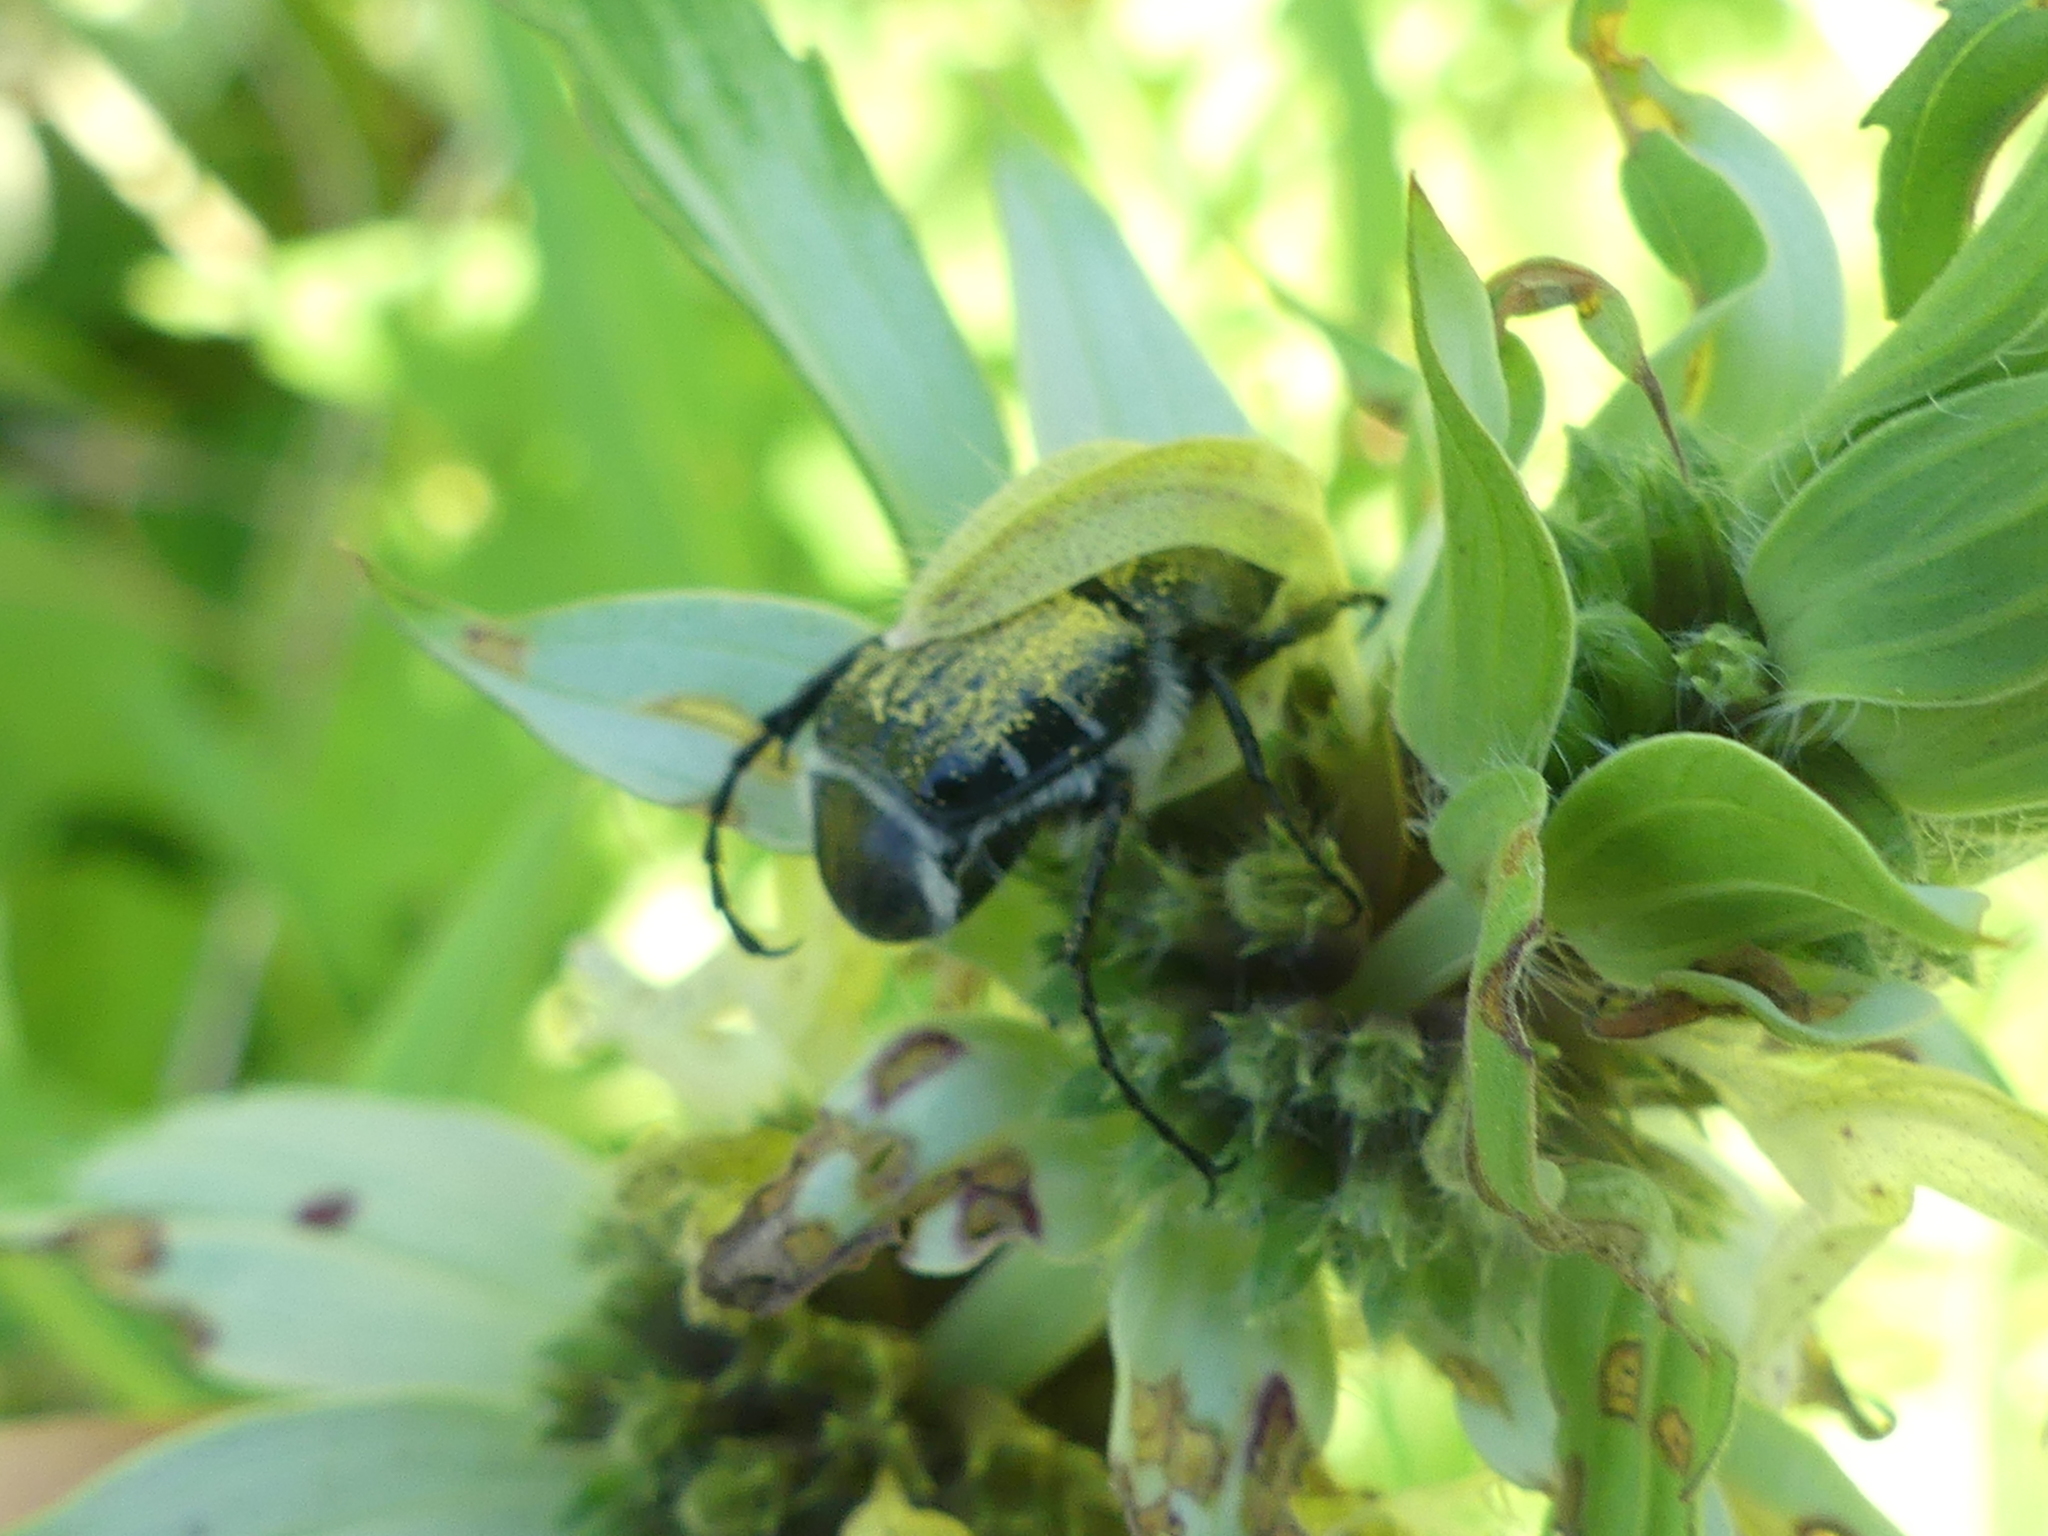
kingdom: Animalia
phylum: Arthropoda
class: Insecta
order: Coleoptera
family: Scarabaeidae
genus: Trichiotinus
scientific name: Trichiotinus texanus
